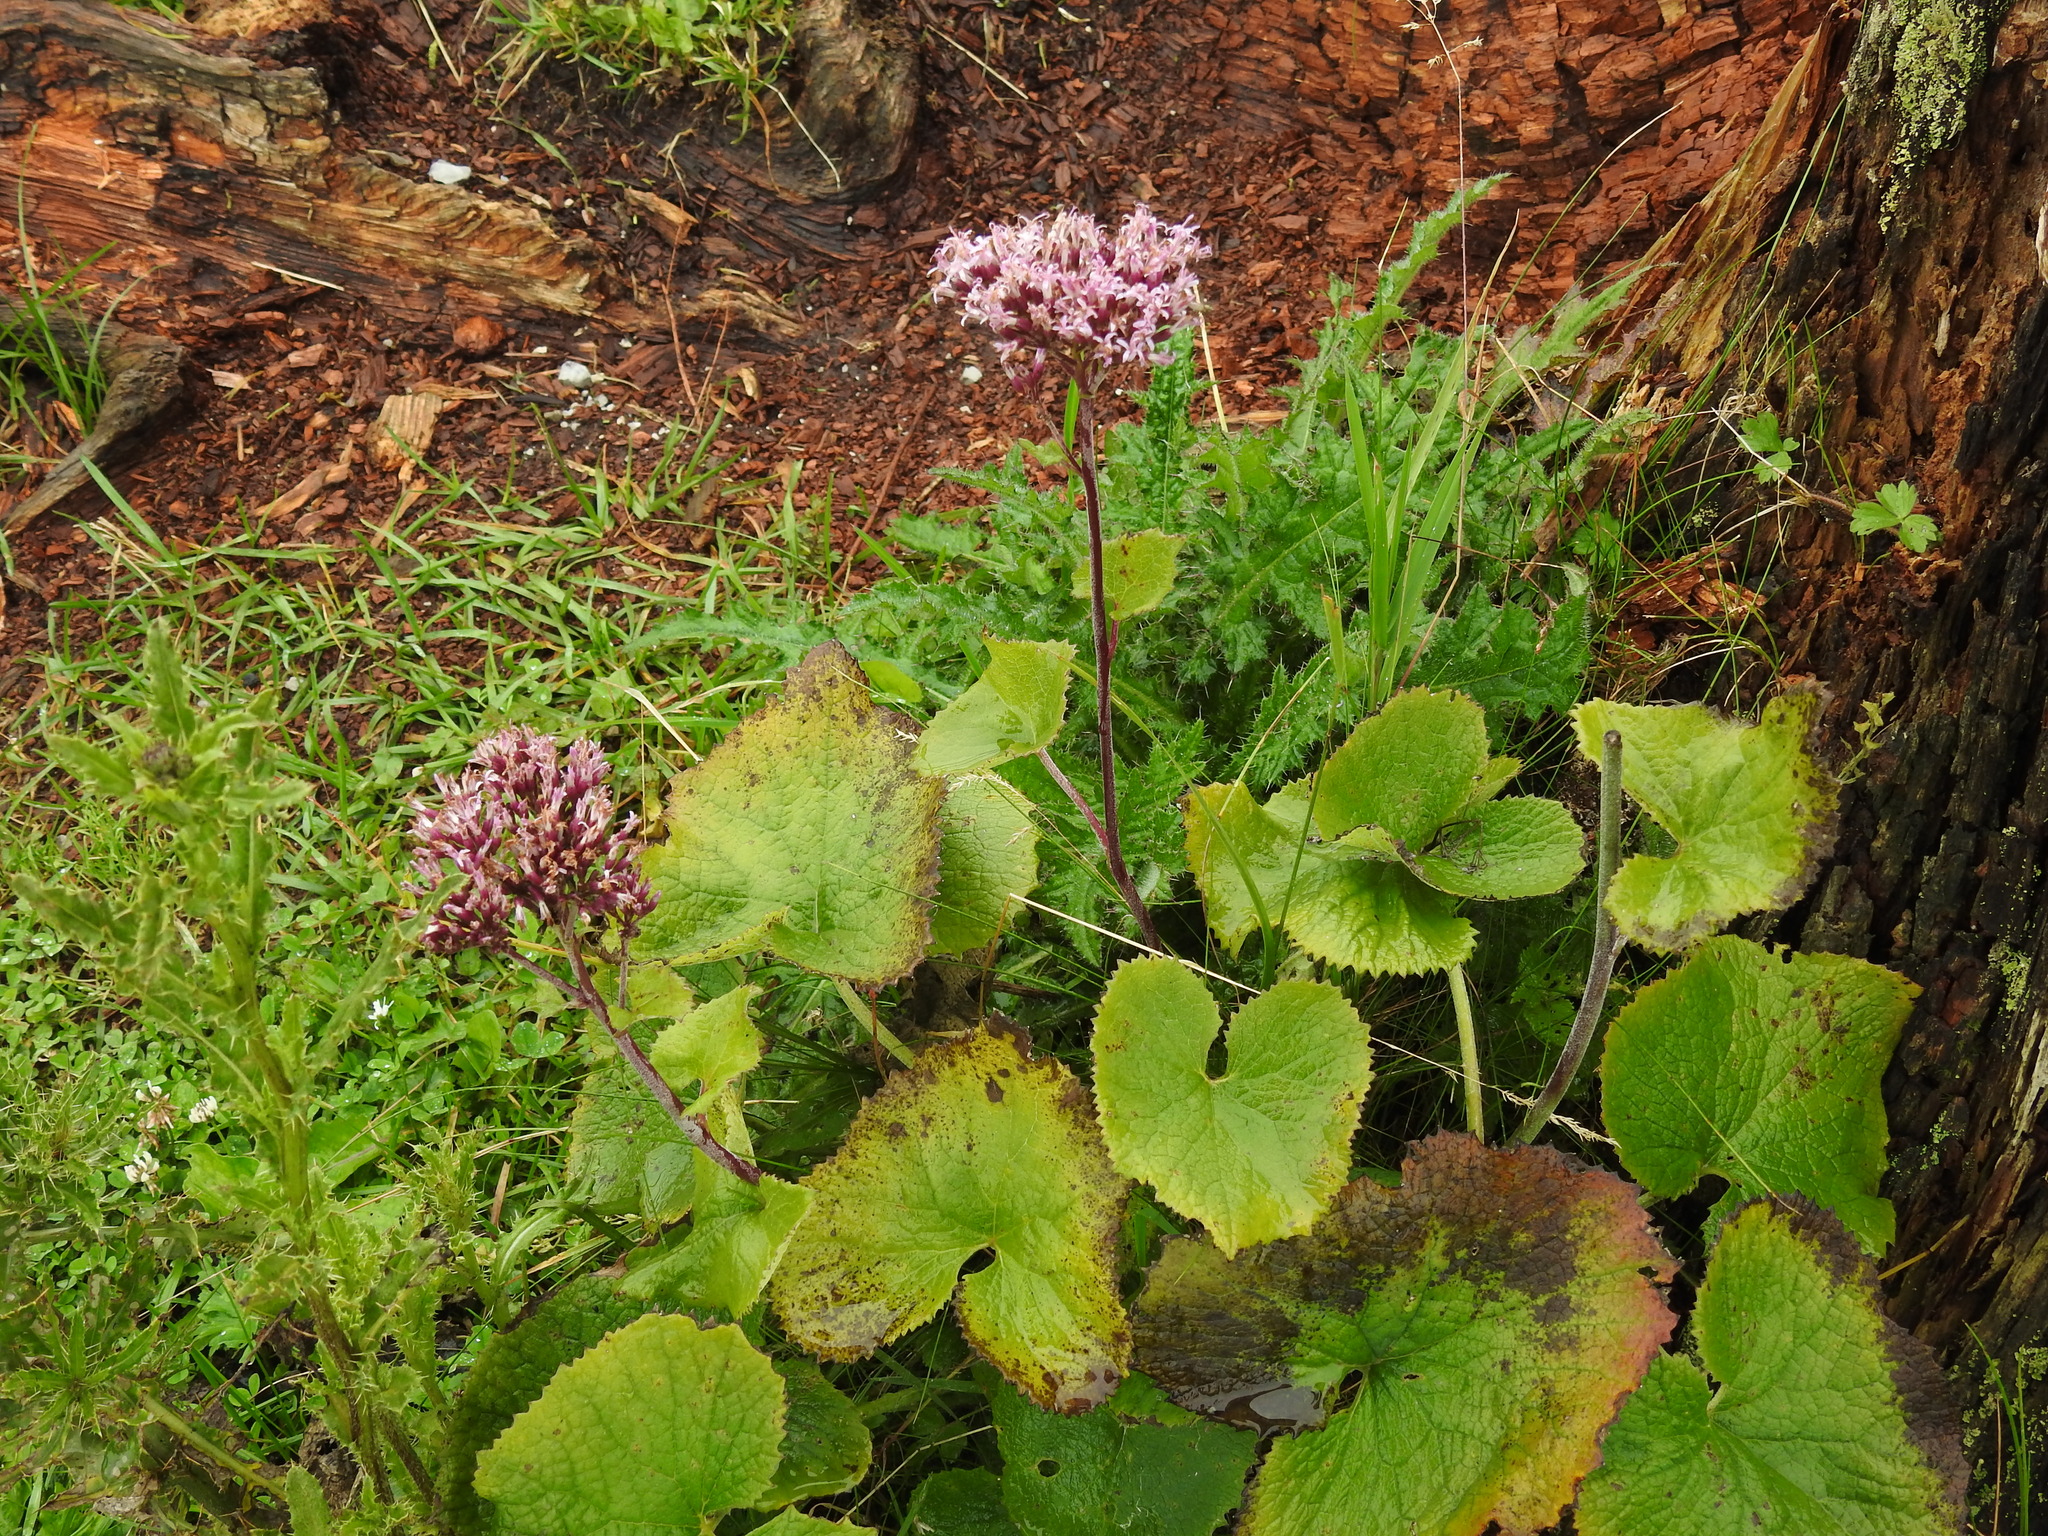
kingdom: Plantae
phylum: Tracheophyta
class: Magnoliopsida
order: Asterales
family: Asteraceae
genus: Adenostyles
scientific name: Adenostyles alpina
